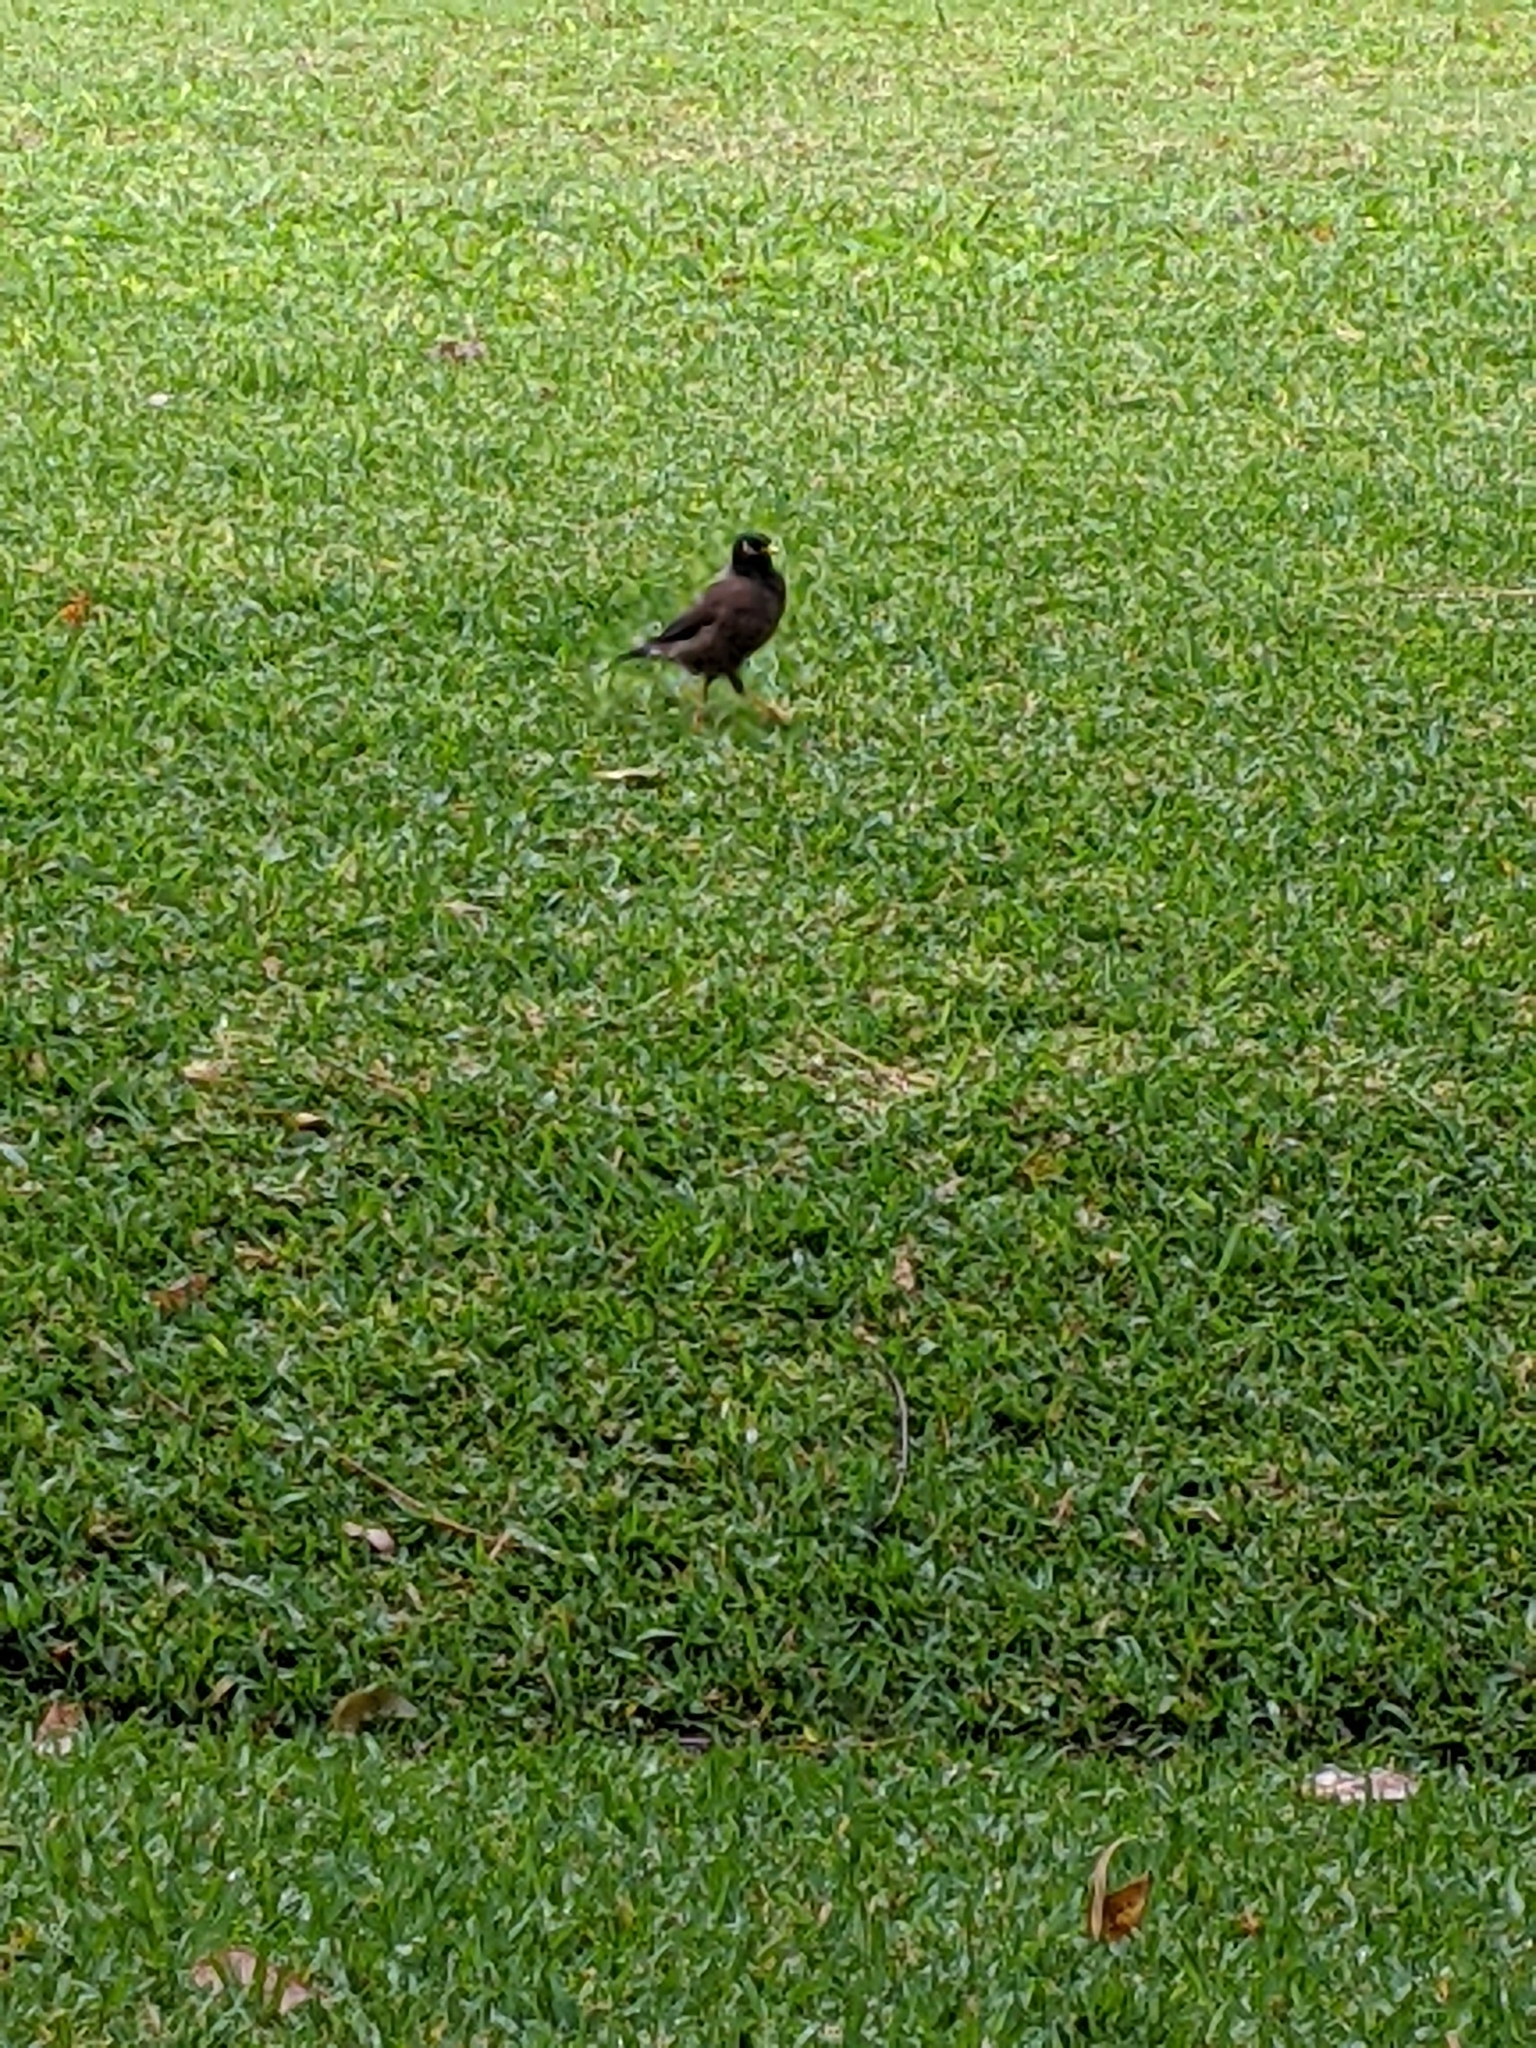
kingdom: Animalia
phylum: Chordata
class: Aves
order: Passeriformes
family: Sturnidae
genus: Acridotheres
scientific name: Acridotheres tristis
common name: Common myna
